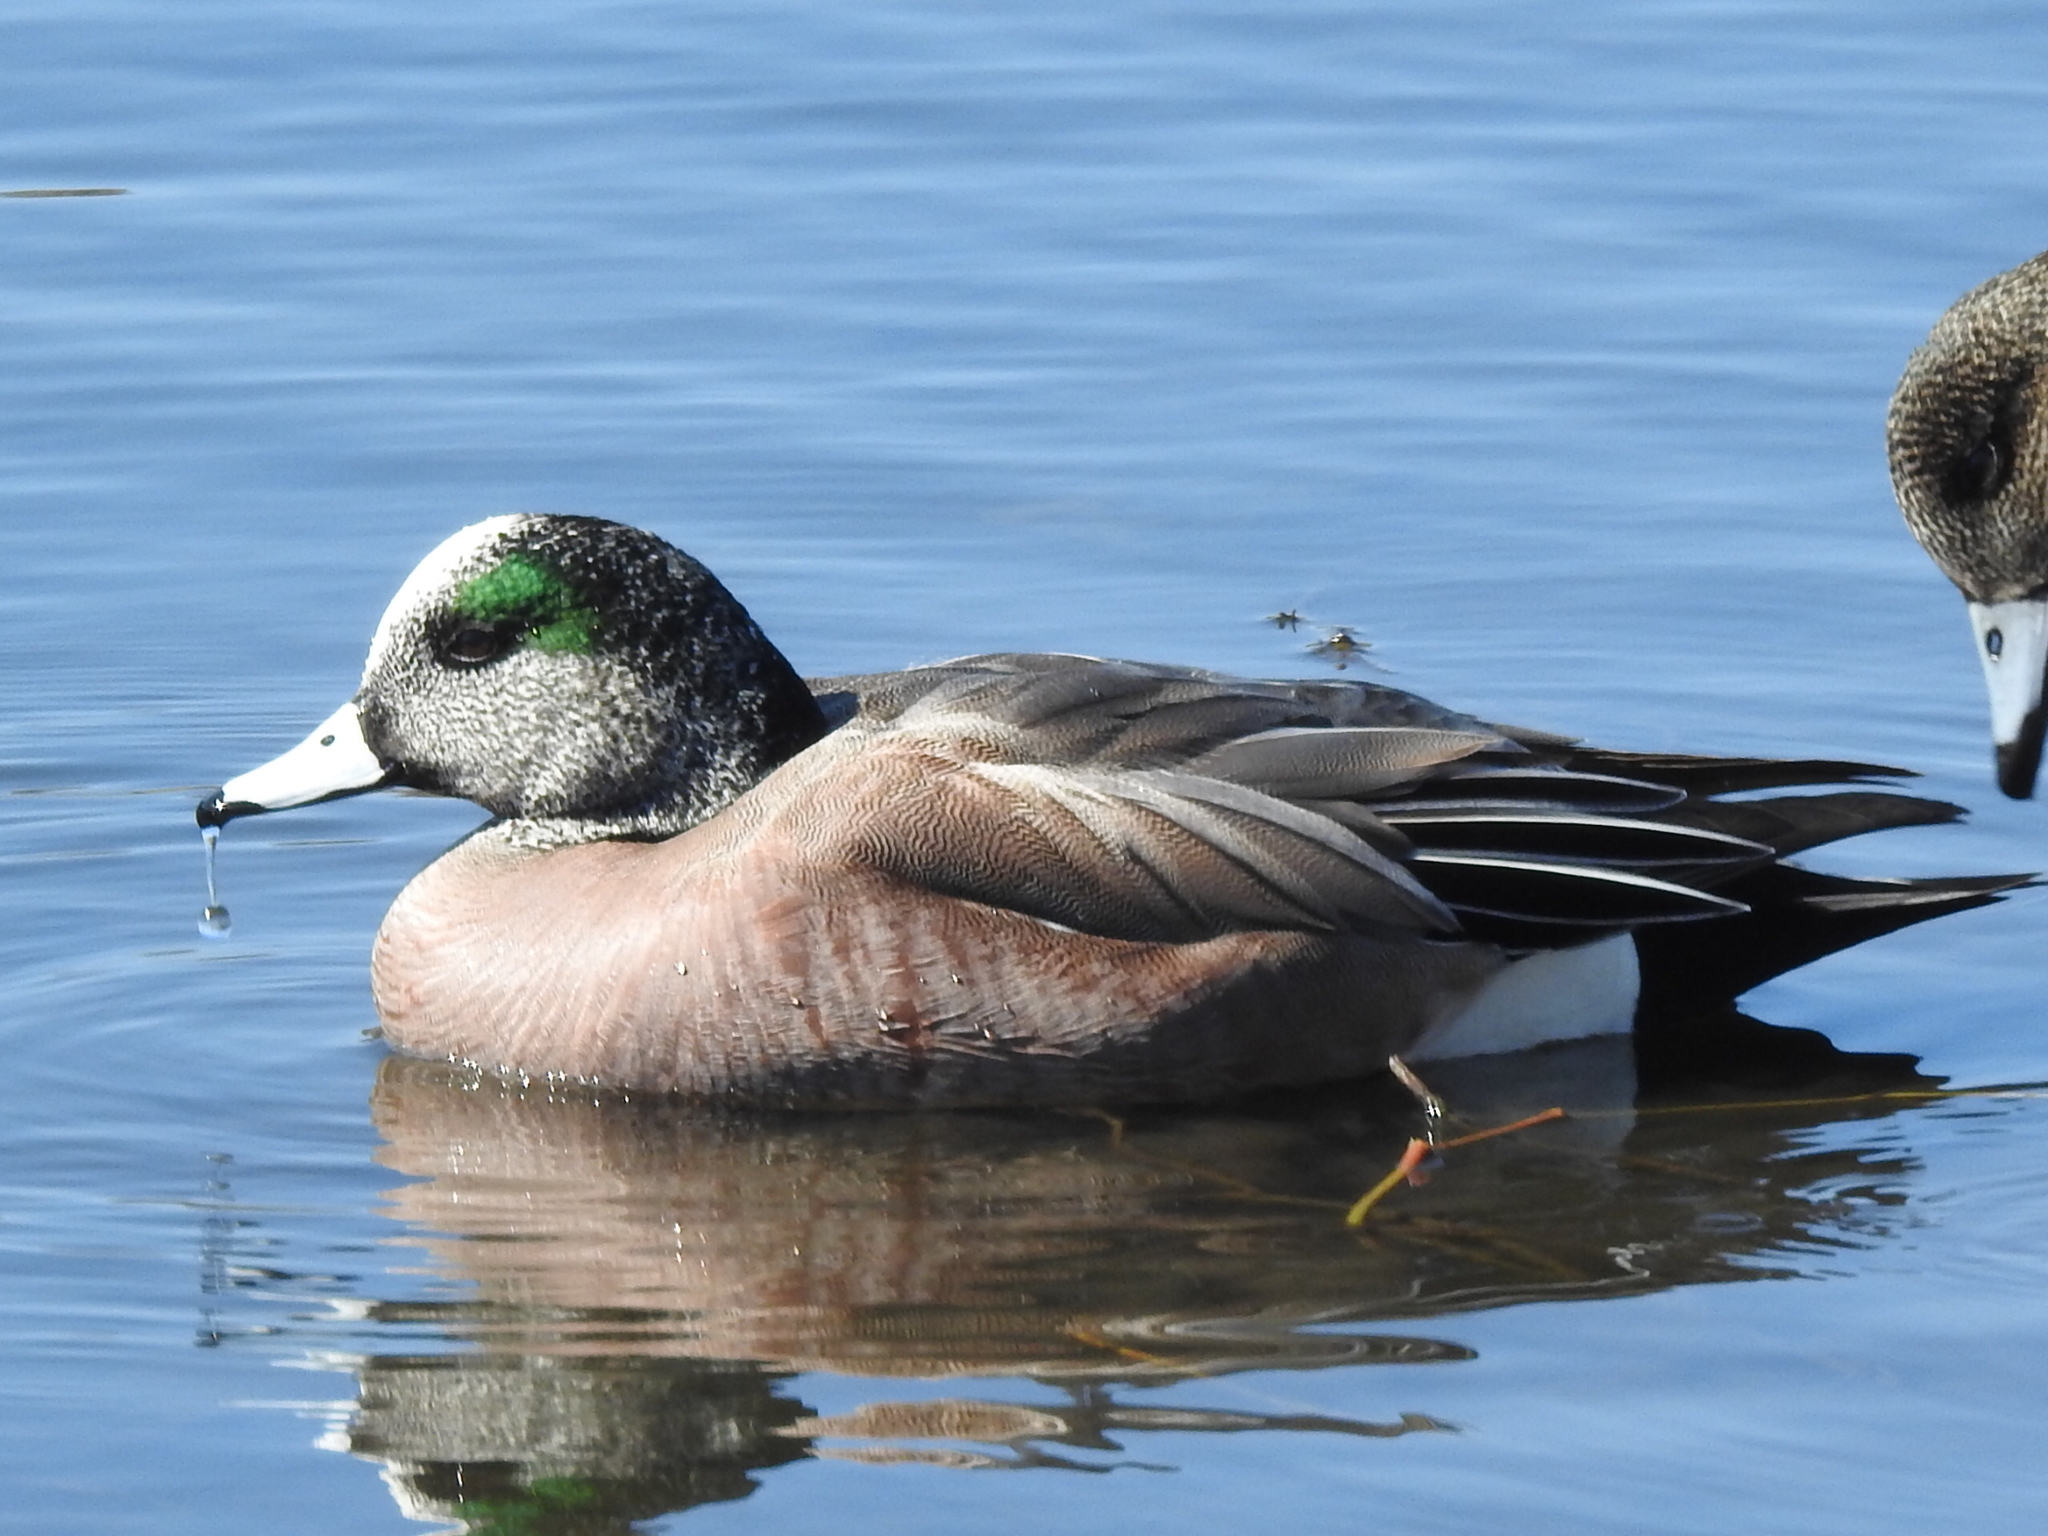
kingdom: Animalia
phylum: Chordata
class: Aves
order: Anseriformes
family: Anatidae
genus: Mareca
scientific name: Mareca americana
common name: American wigeon
